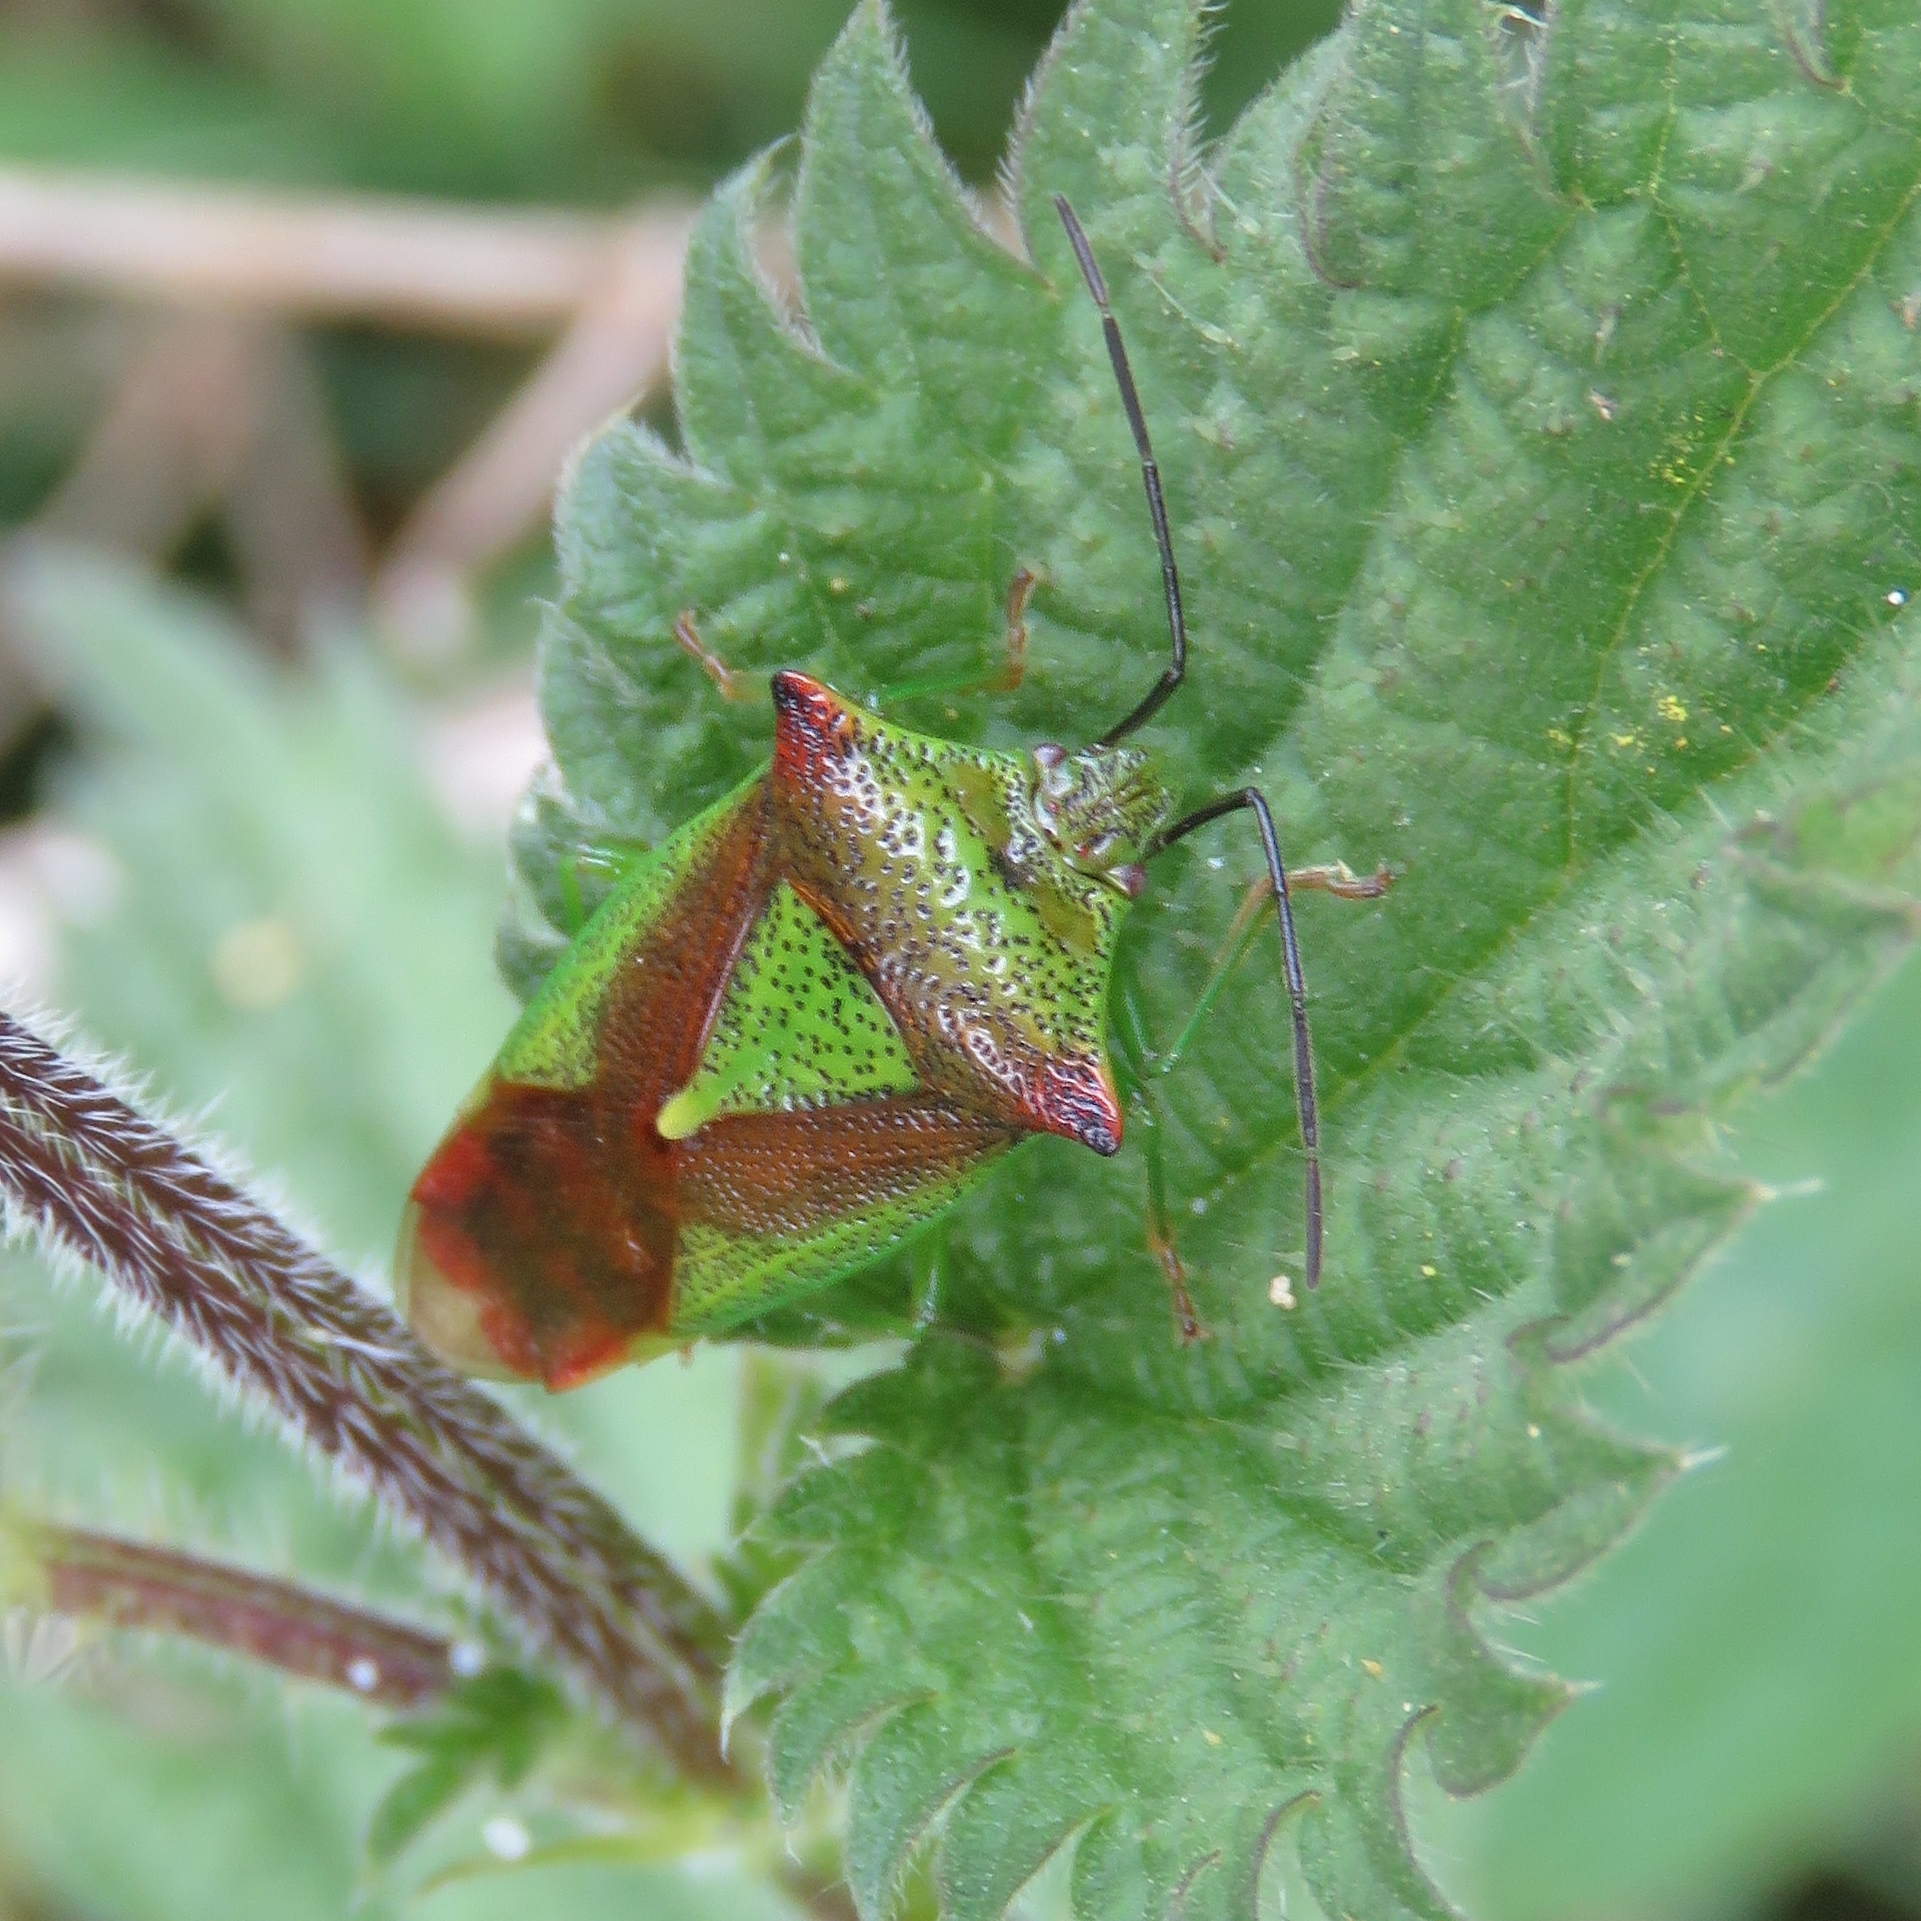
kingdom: Animalia
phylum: Arthropoda
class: Insecta
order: Hemiptera
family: Acanthosomatidae
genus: Acanthosoma
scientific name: Acanthosoma haemorrhoidale
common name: Hawthorn shieldbug
